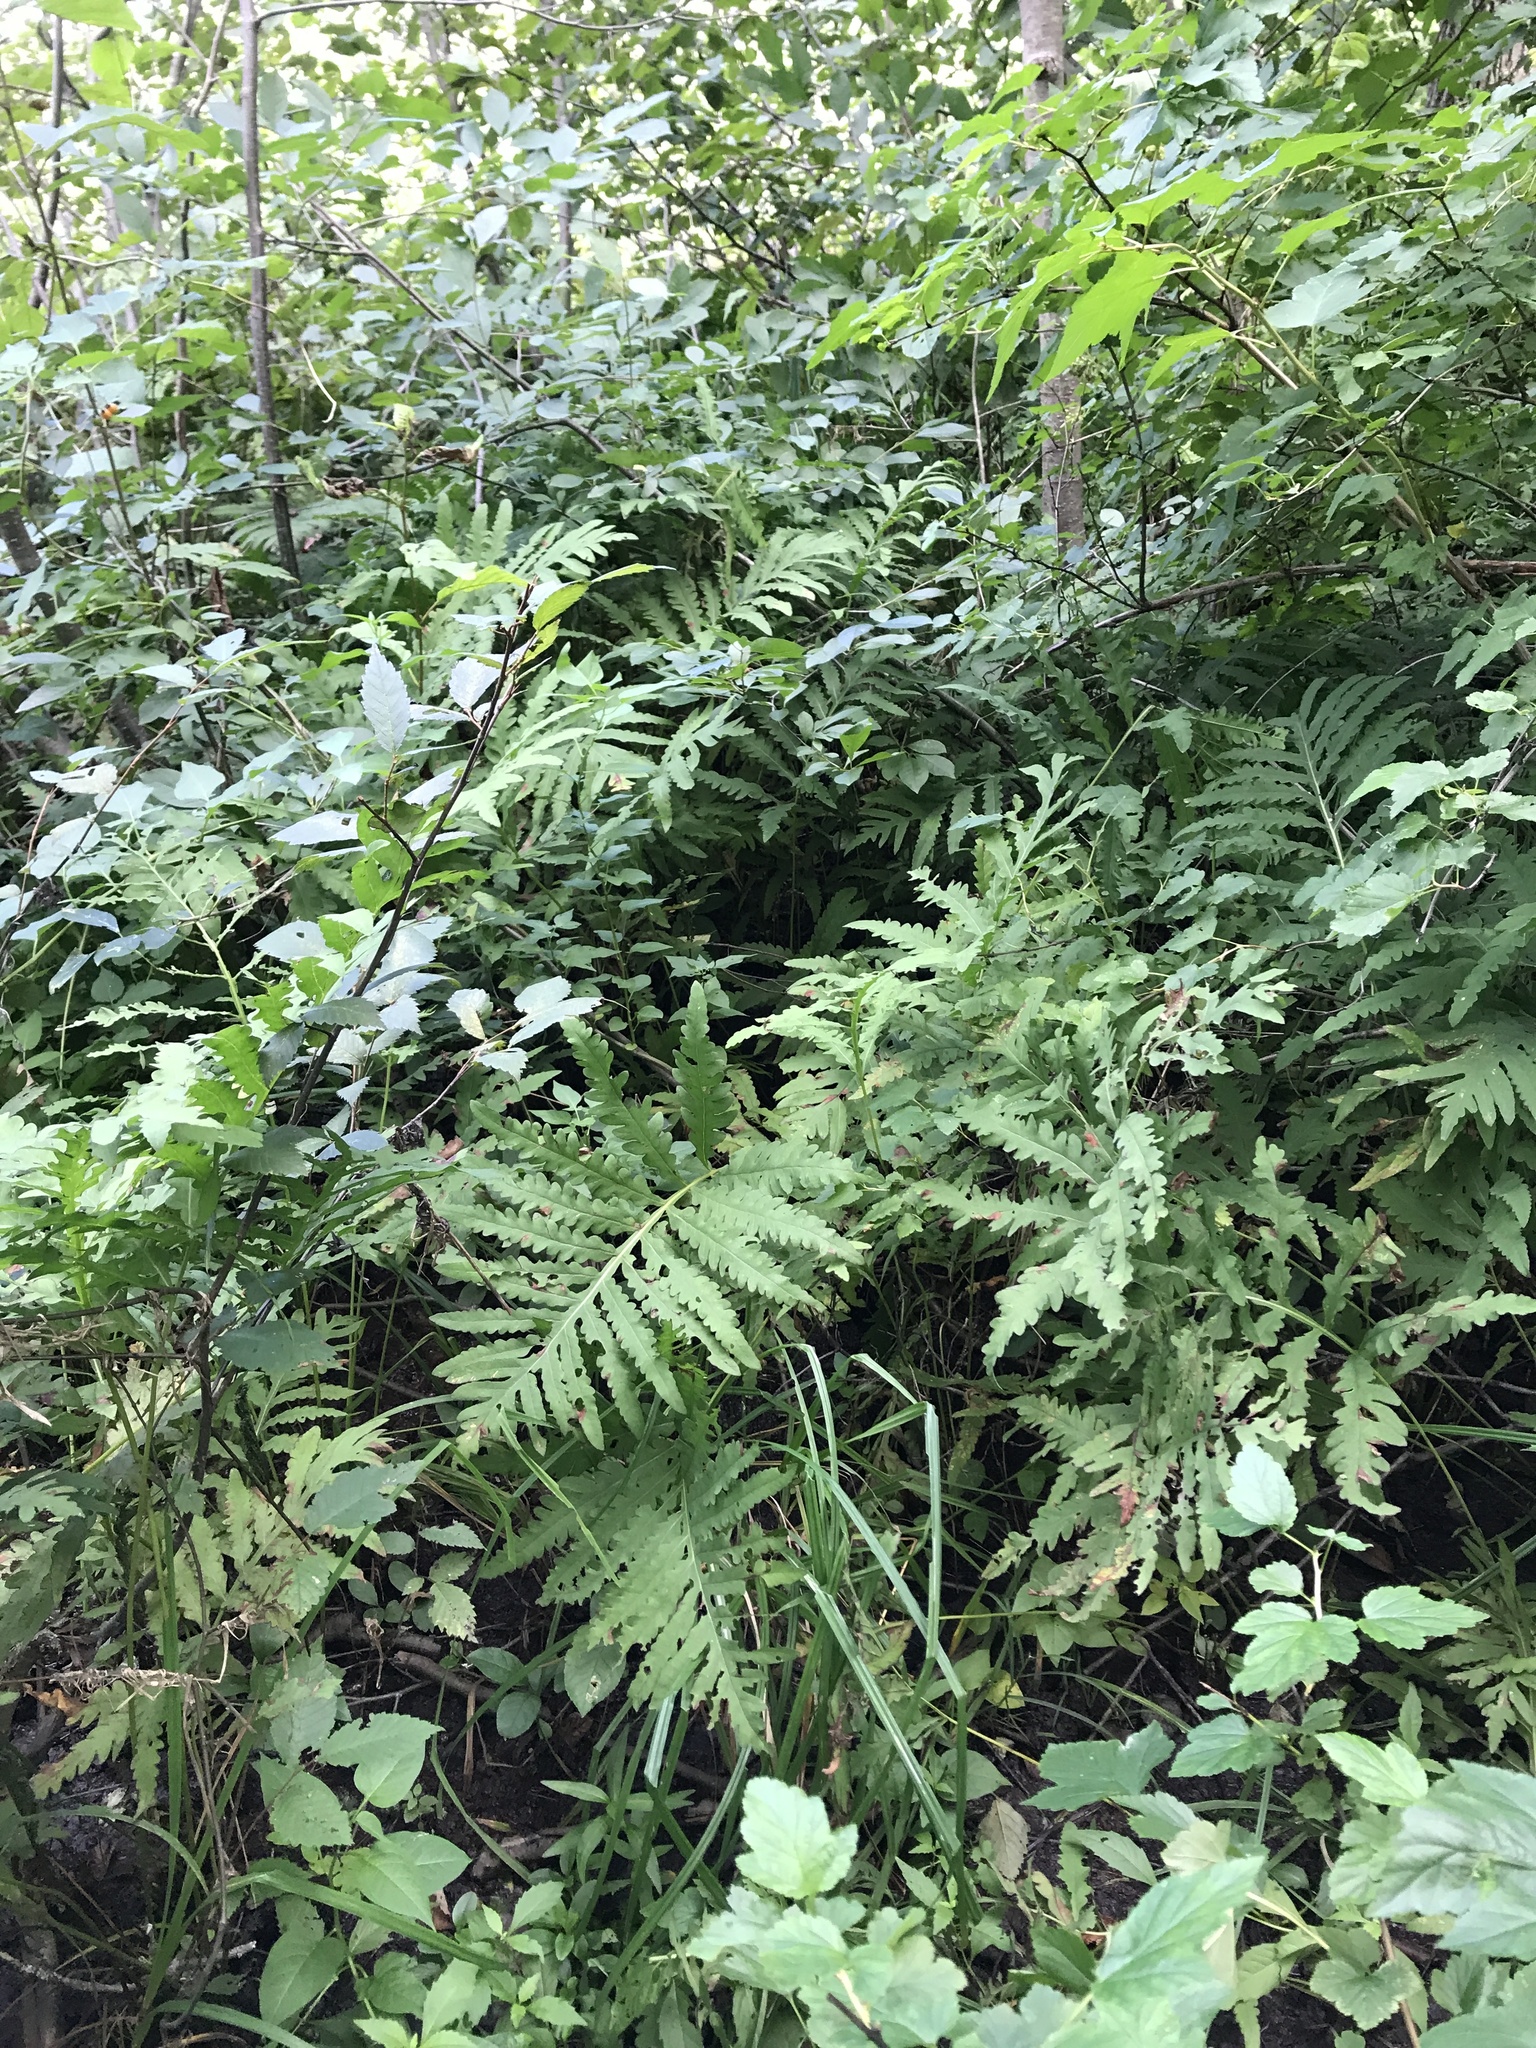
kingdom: Plantae
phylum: Tracheophyta
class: Polypodiopsida
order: Polypodiales
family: Onocleaceae
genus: Onoclea
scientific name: Onoclea sensibilis
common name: Sensitive fern
